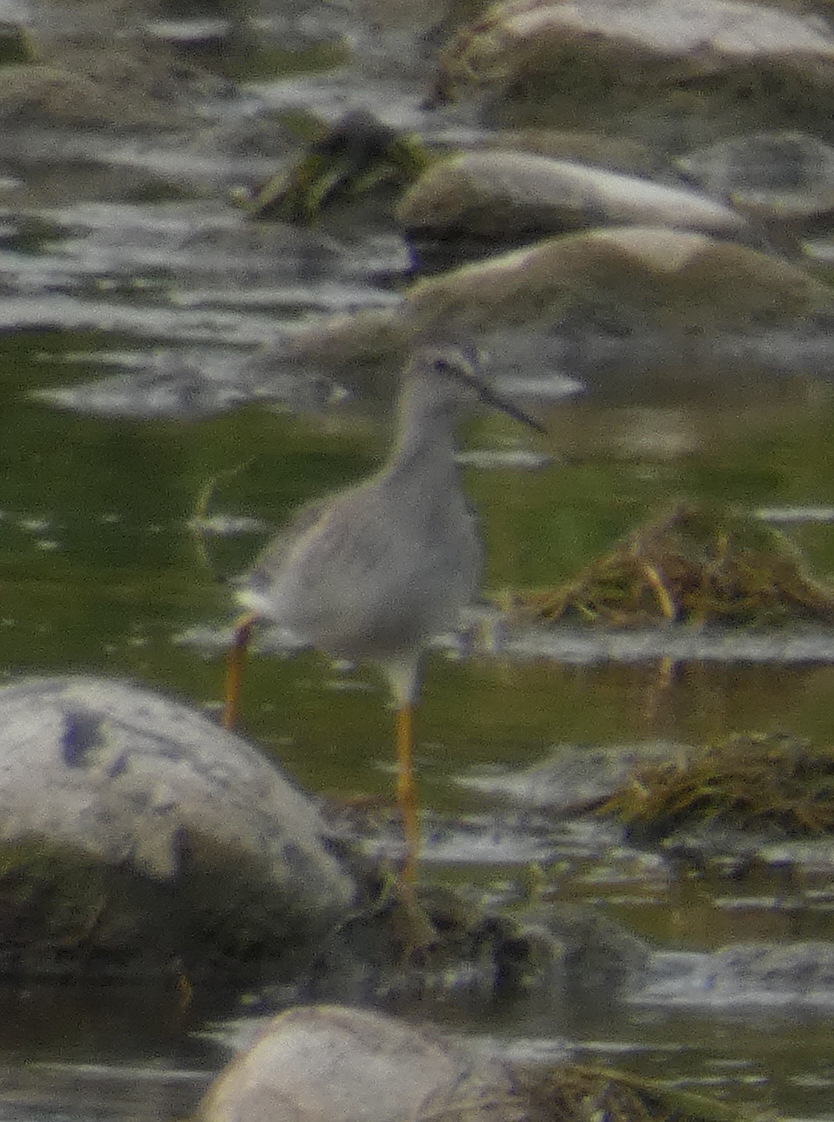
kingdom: Animalia
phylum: Chordata
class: Aves
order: Charadriiformes
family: Scolopacidae
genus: Tringa
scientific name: Tringa melanoleuca
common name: Greater yellowlegs
